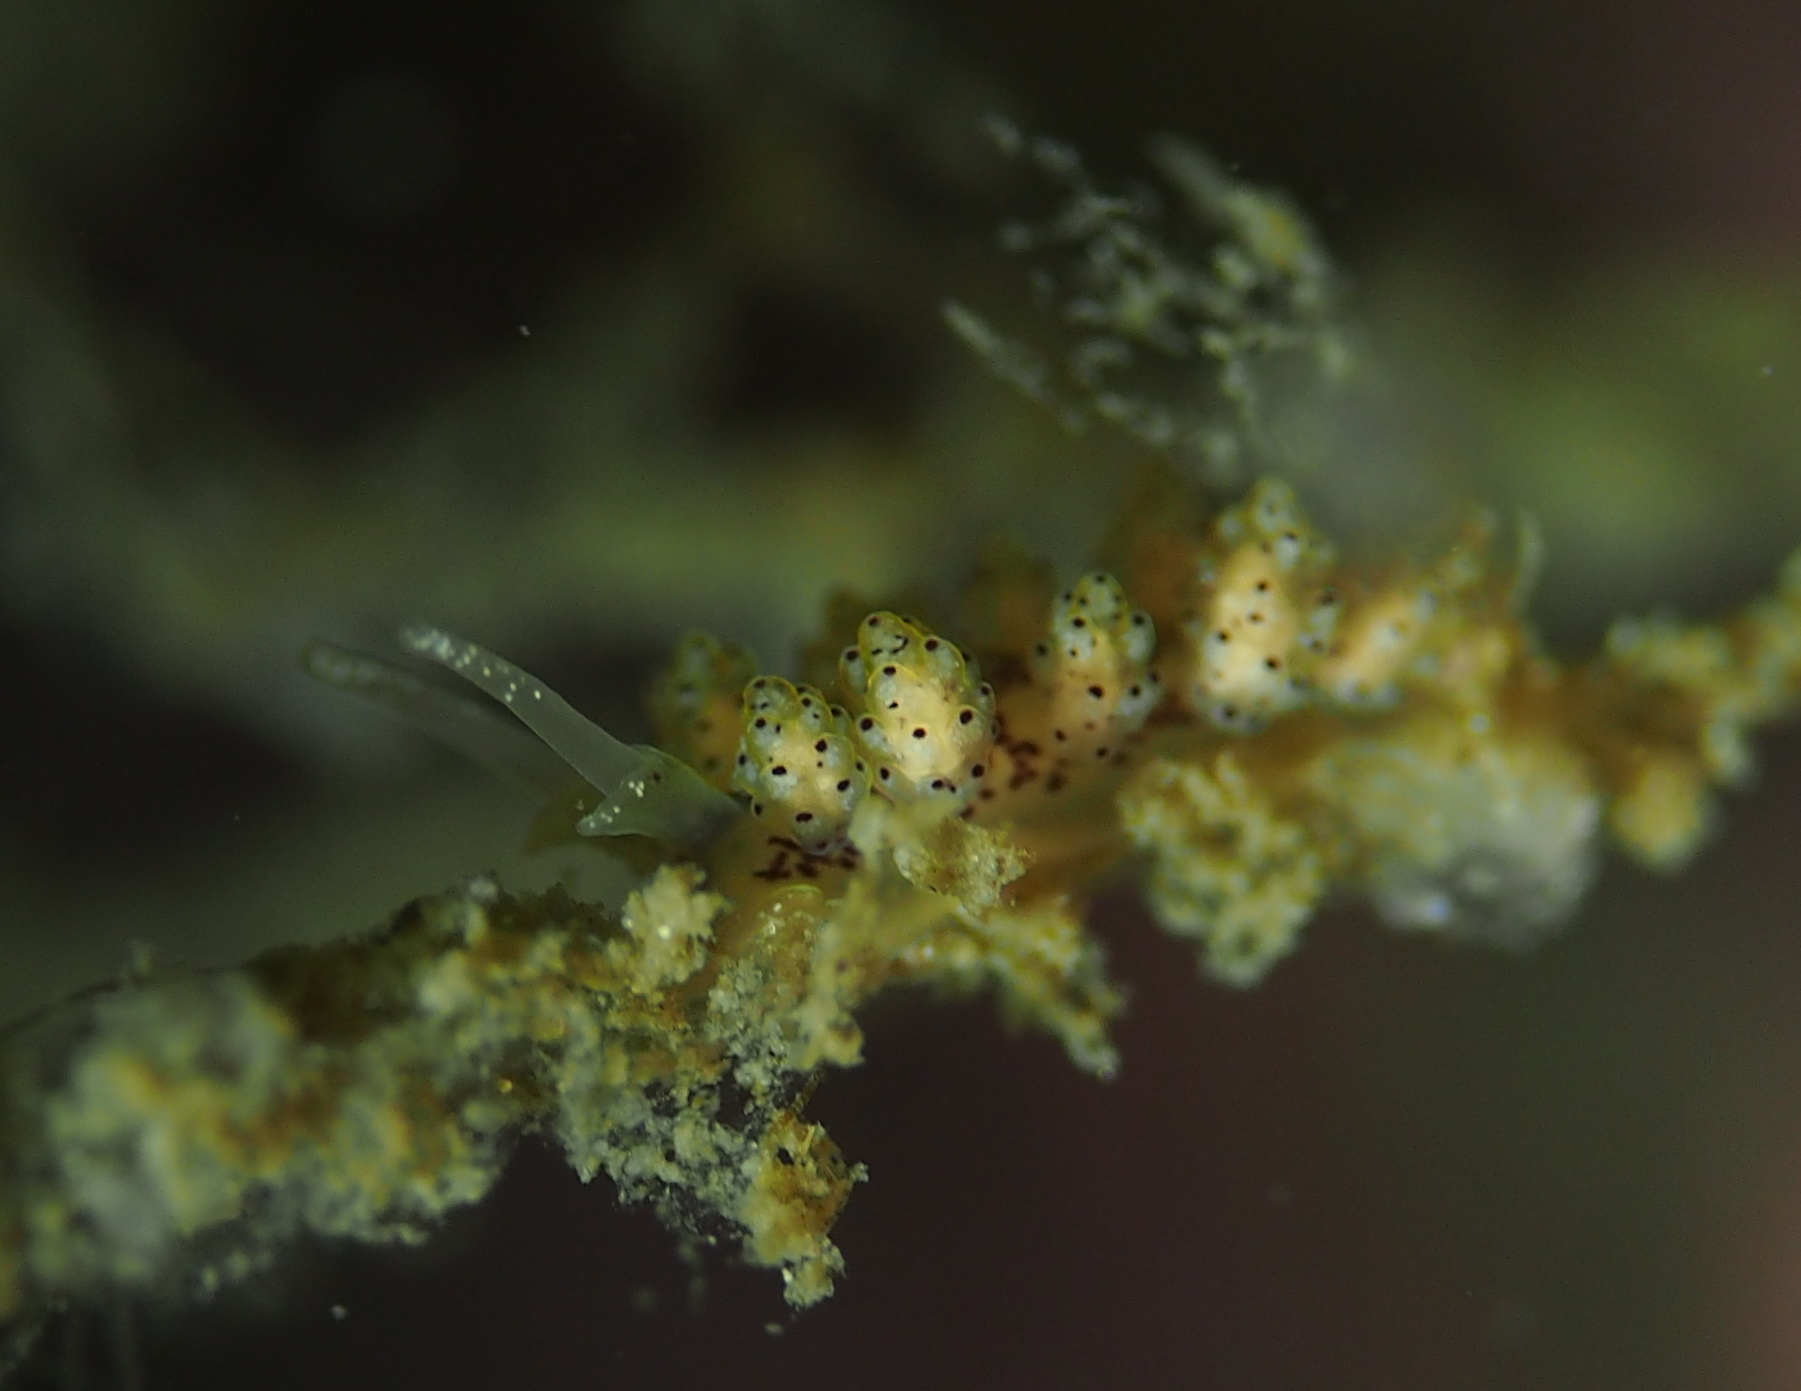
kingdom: Animalia
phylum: Mollusca
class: Gastropoda
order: Nudibranchia
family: Dotidae
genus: Doto
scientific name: Doto dunnei
